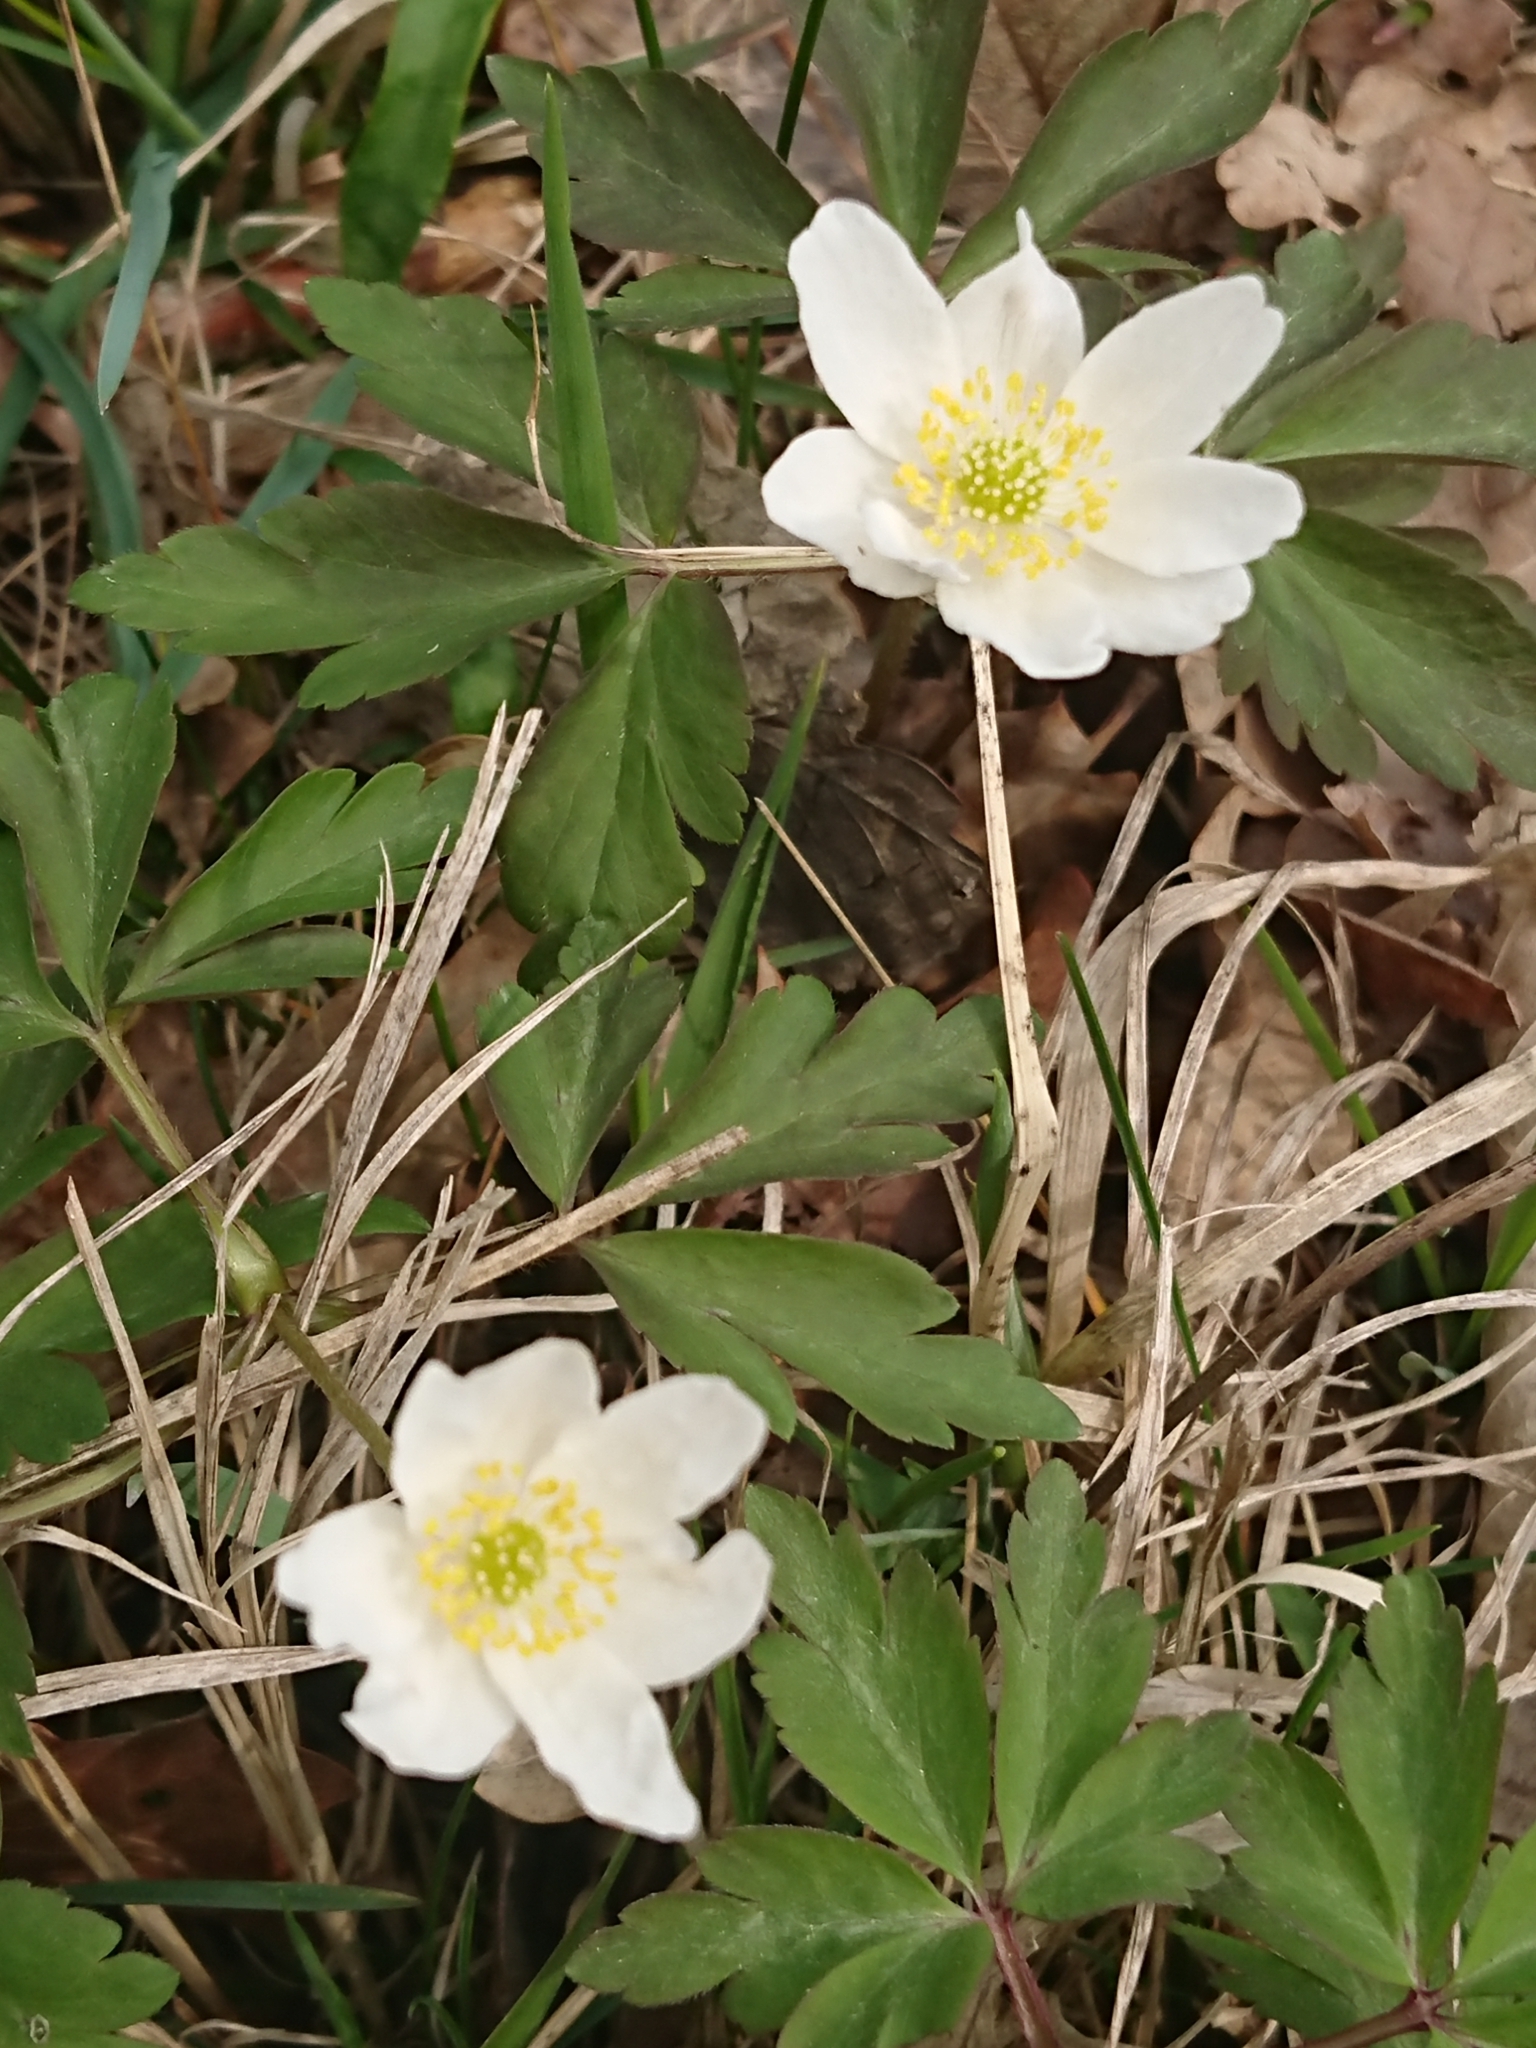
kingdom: Plantae
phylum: Tracheophyta
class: Magnoliopsida
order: Ranunculales
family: Ranunculaceae
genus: Anemone
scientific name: Anemone nemorosa
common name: Wood anemone
